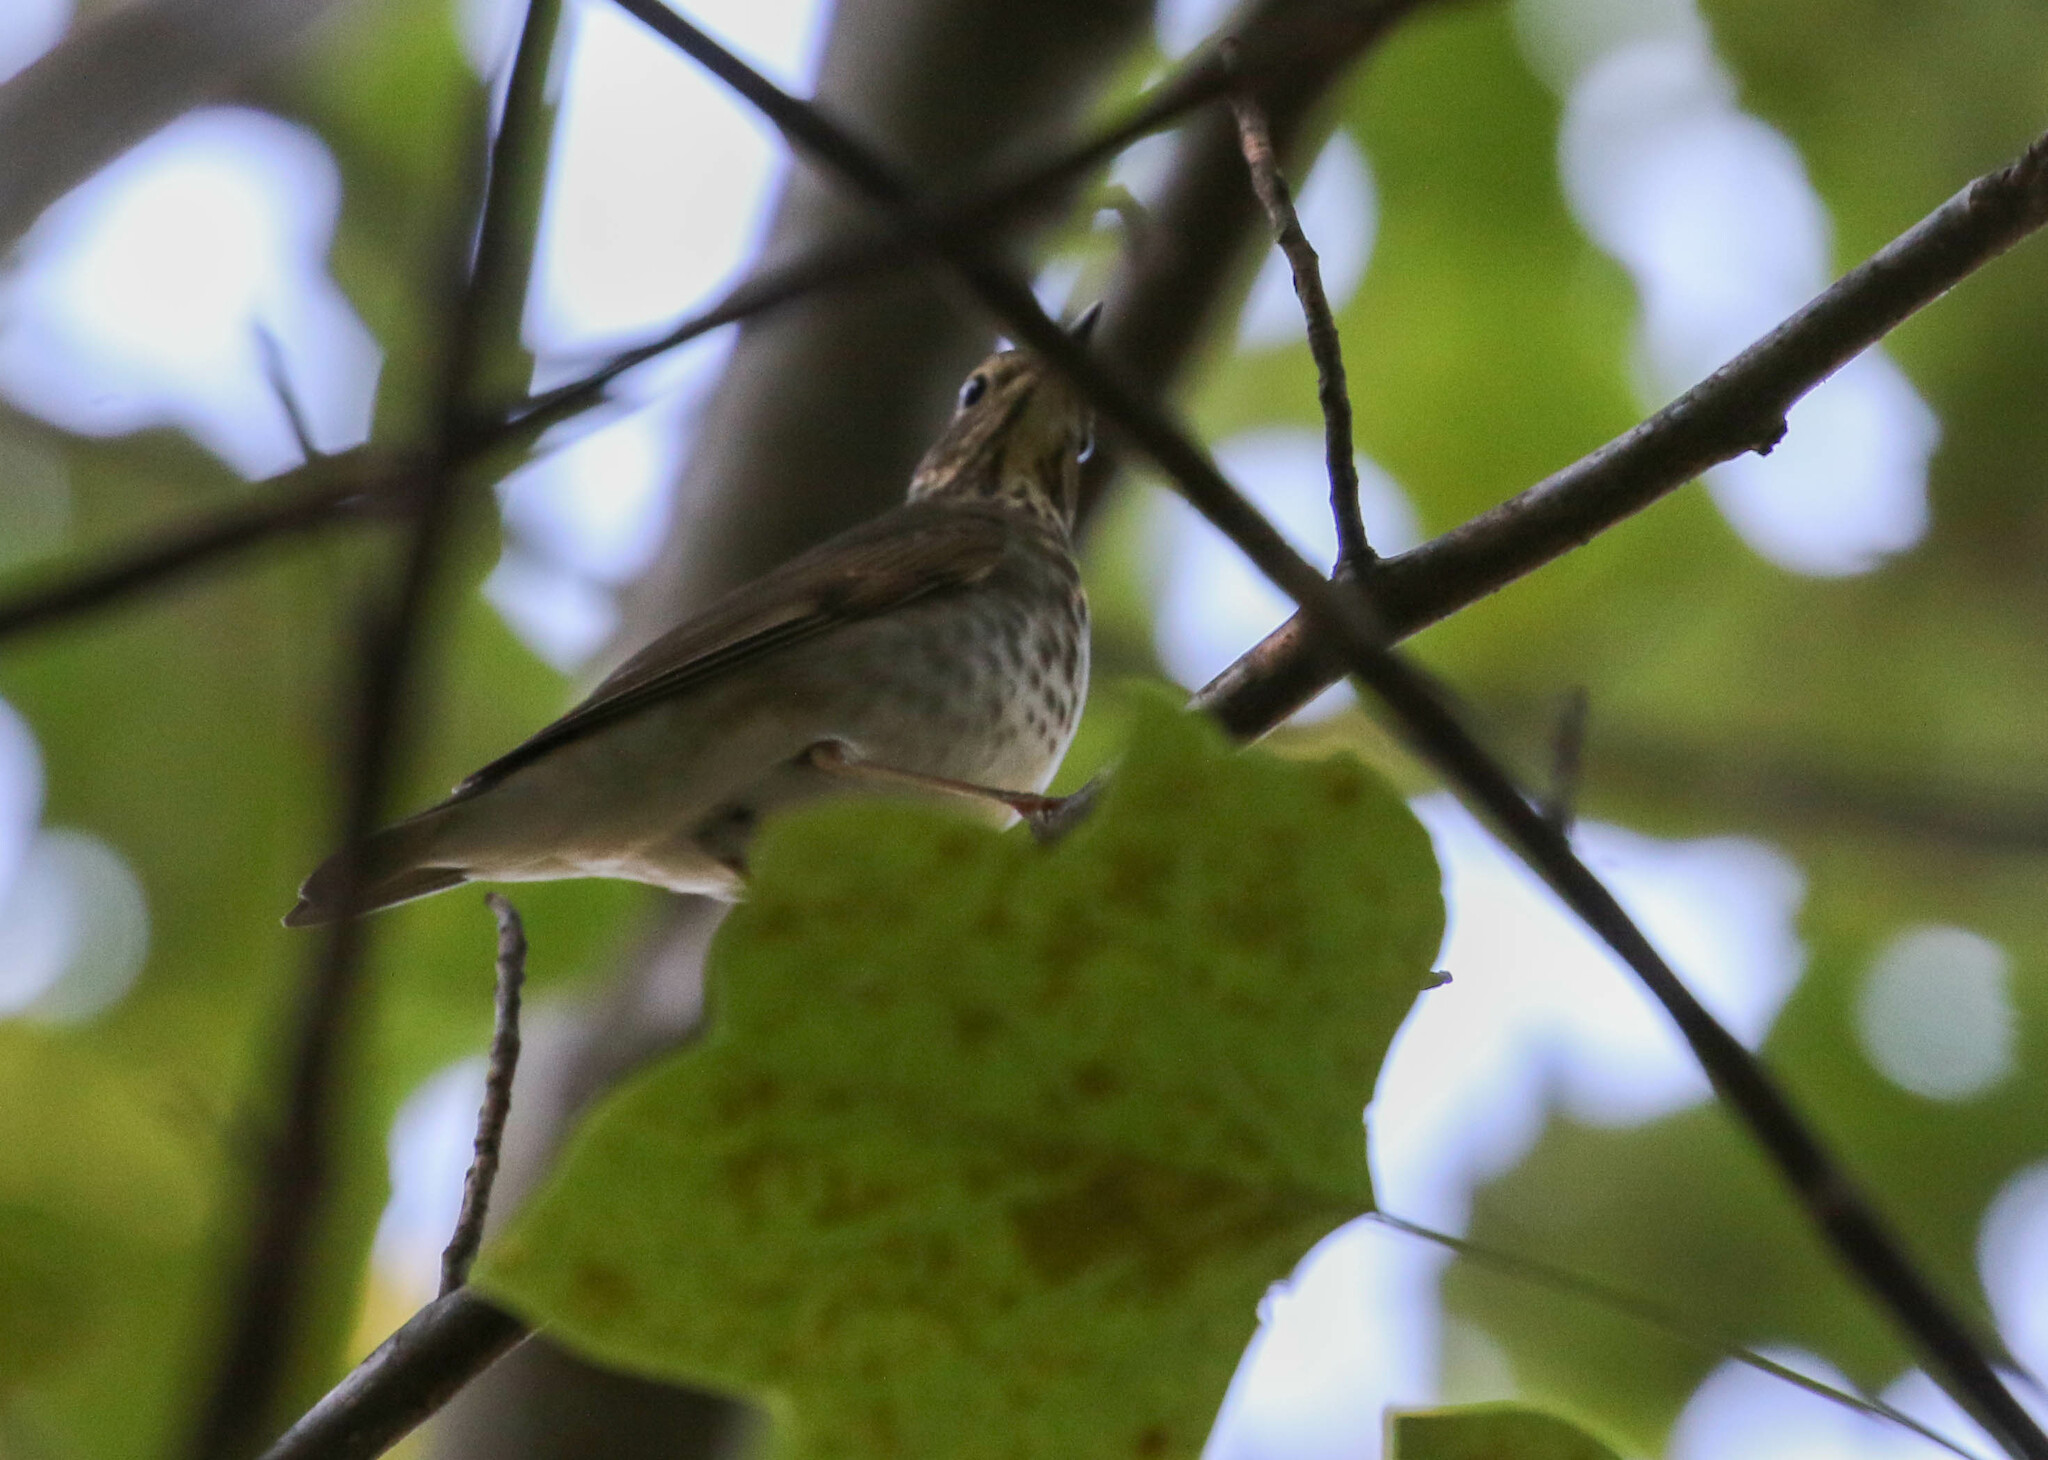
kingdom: Animalia
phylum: Chordata
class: Aves
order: Passeriformes
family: Turdidae
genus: Catharus
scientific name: Catharus ustulatus
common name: Swainson's thrush
